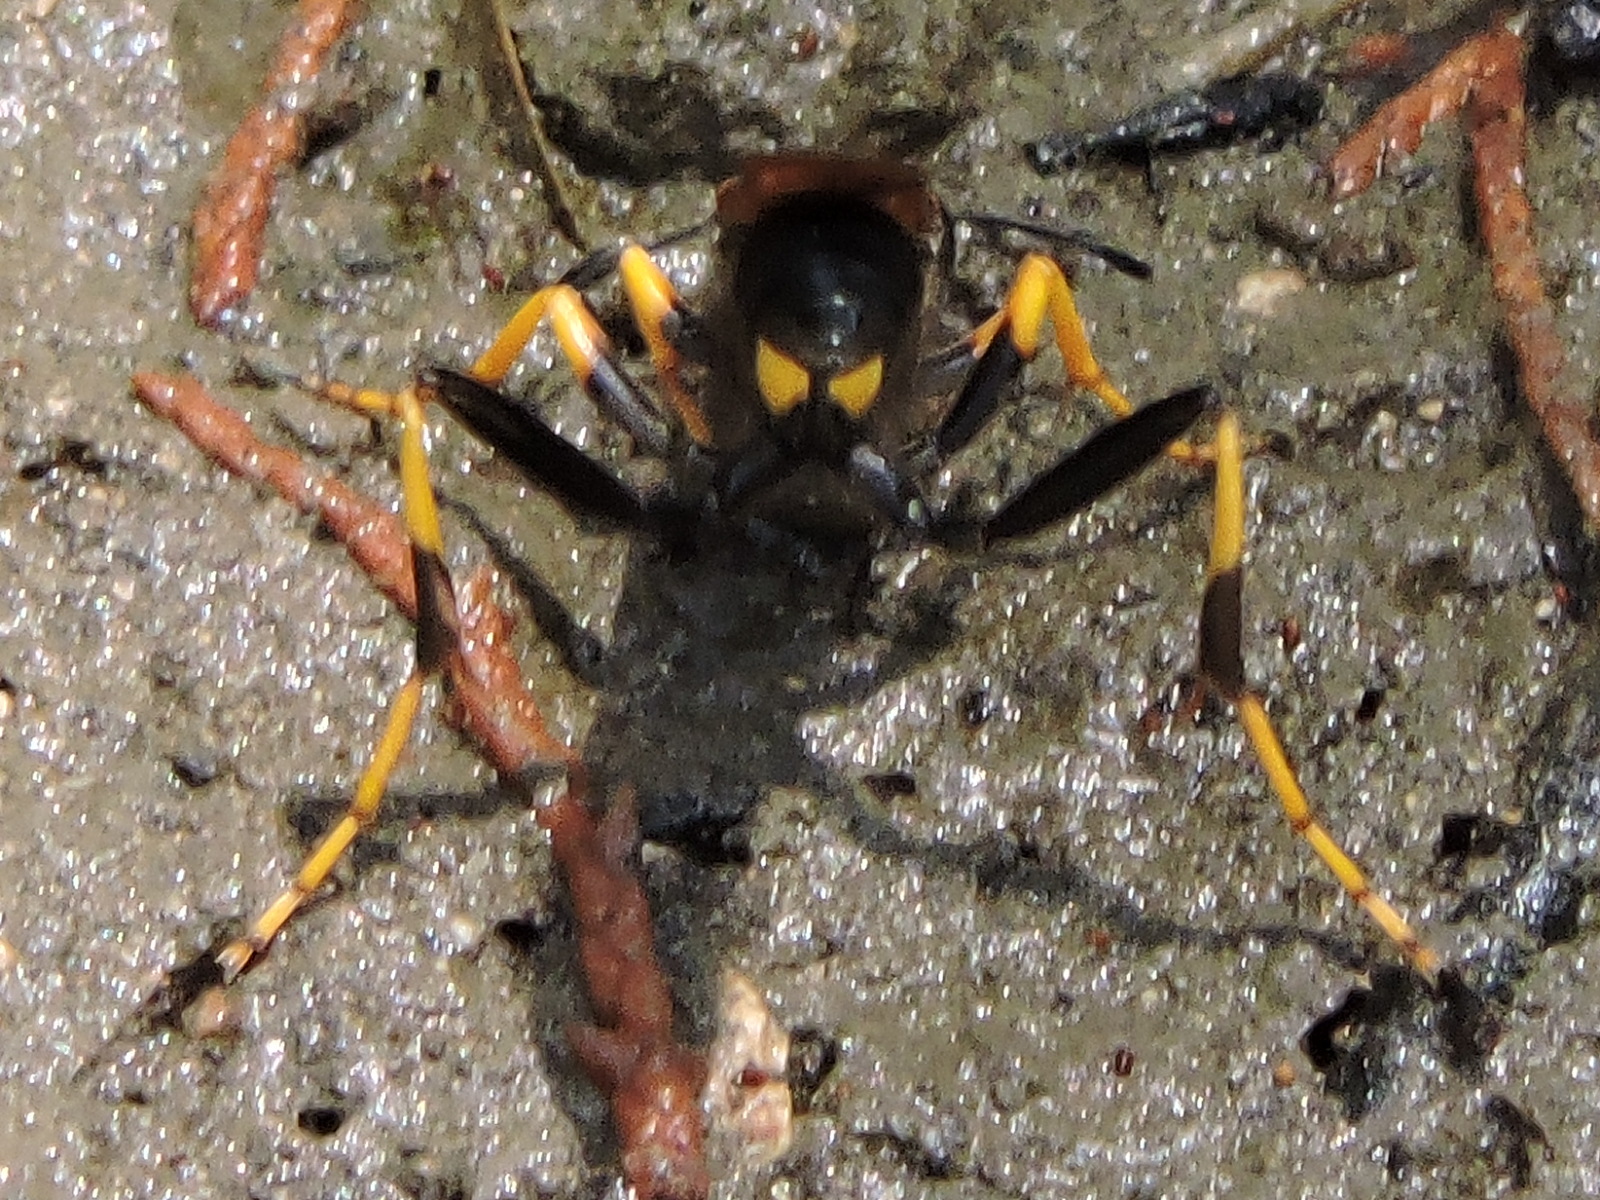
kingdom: Animalia
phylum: Arthropoda
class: Insecta
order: Hymenoptera
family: Sphecidae
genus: Sceliphron
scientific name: Sceliphron caementarium
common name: Mud dauber
